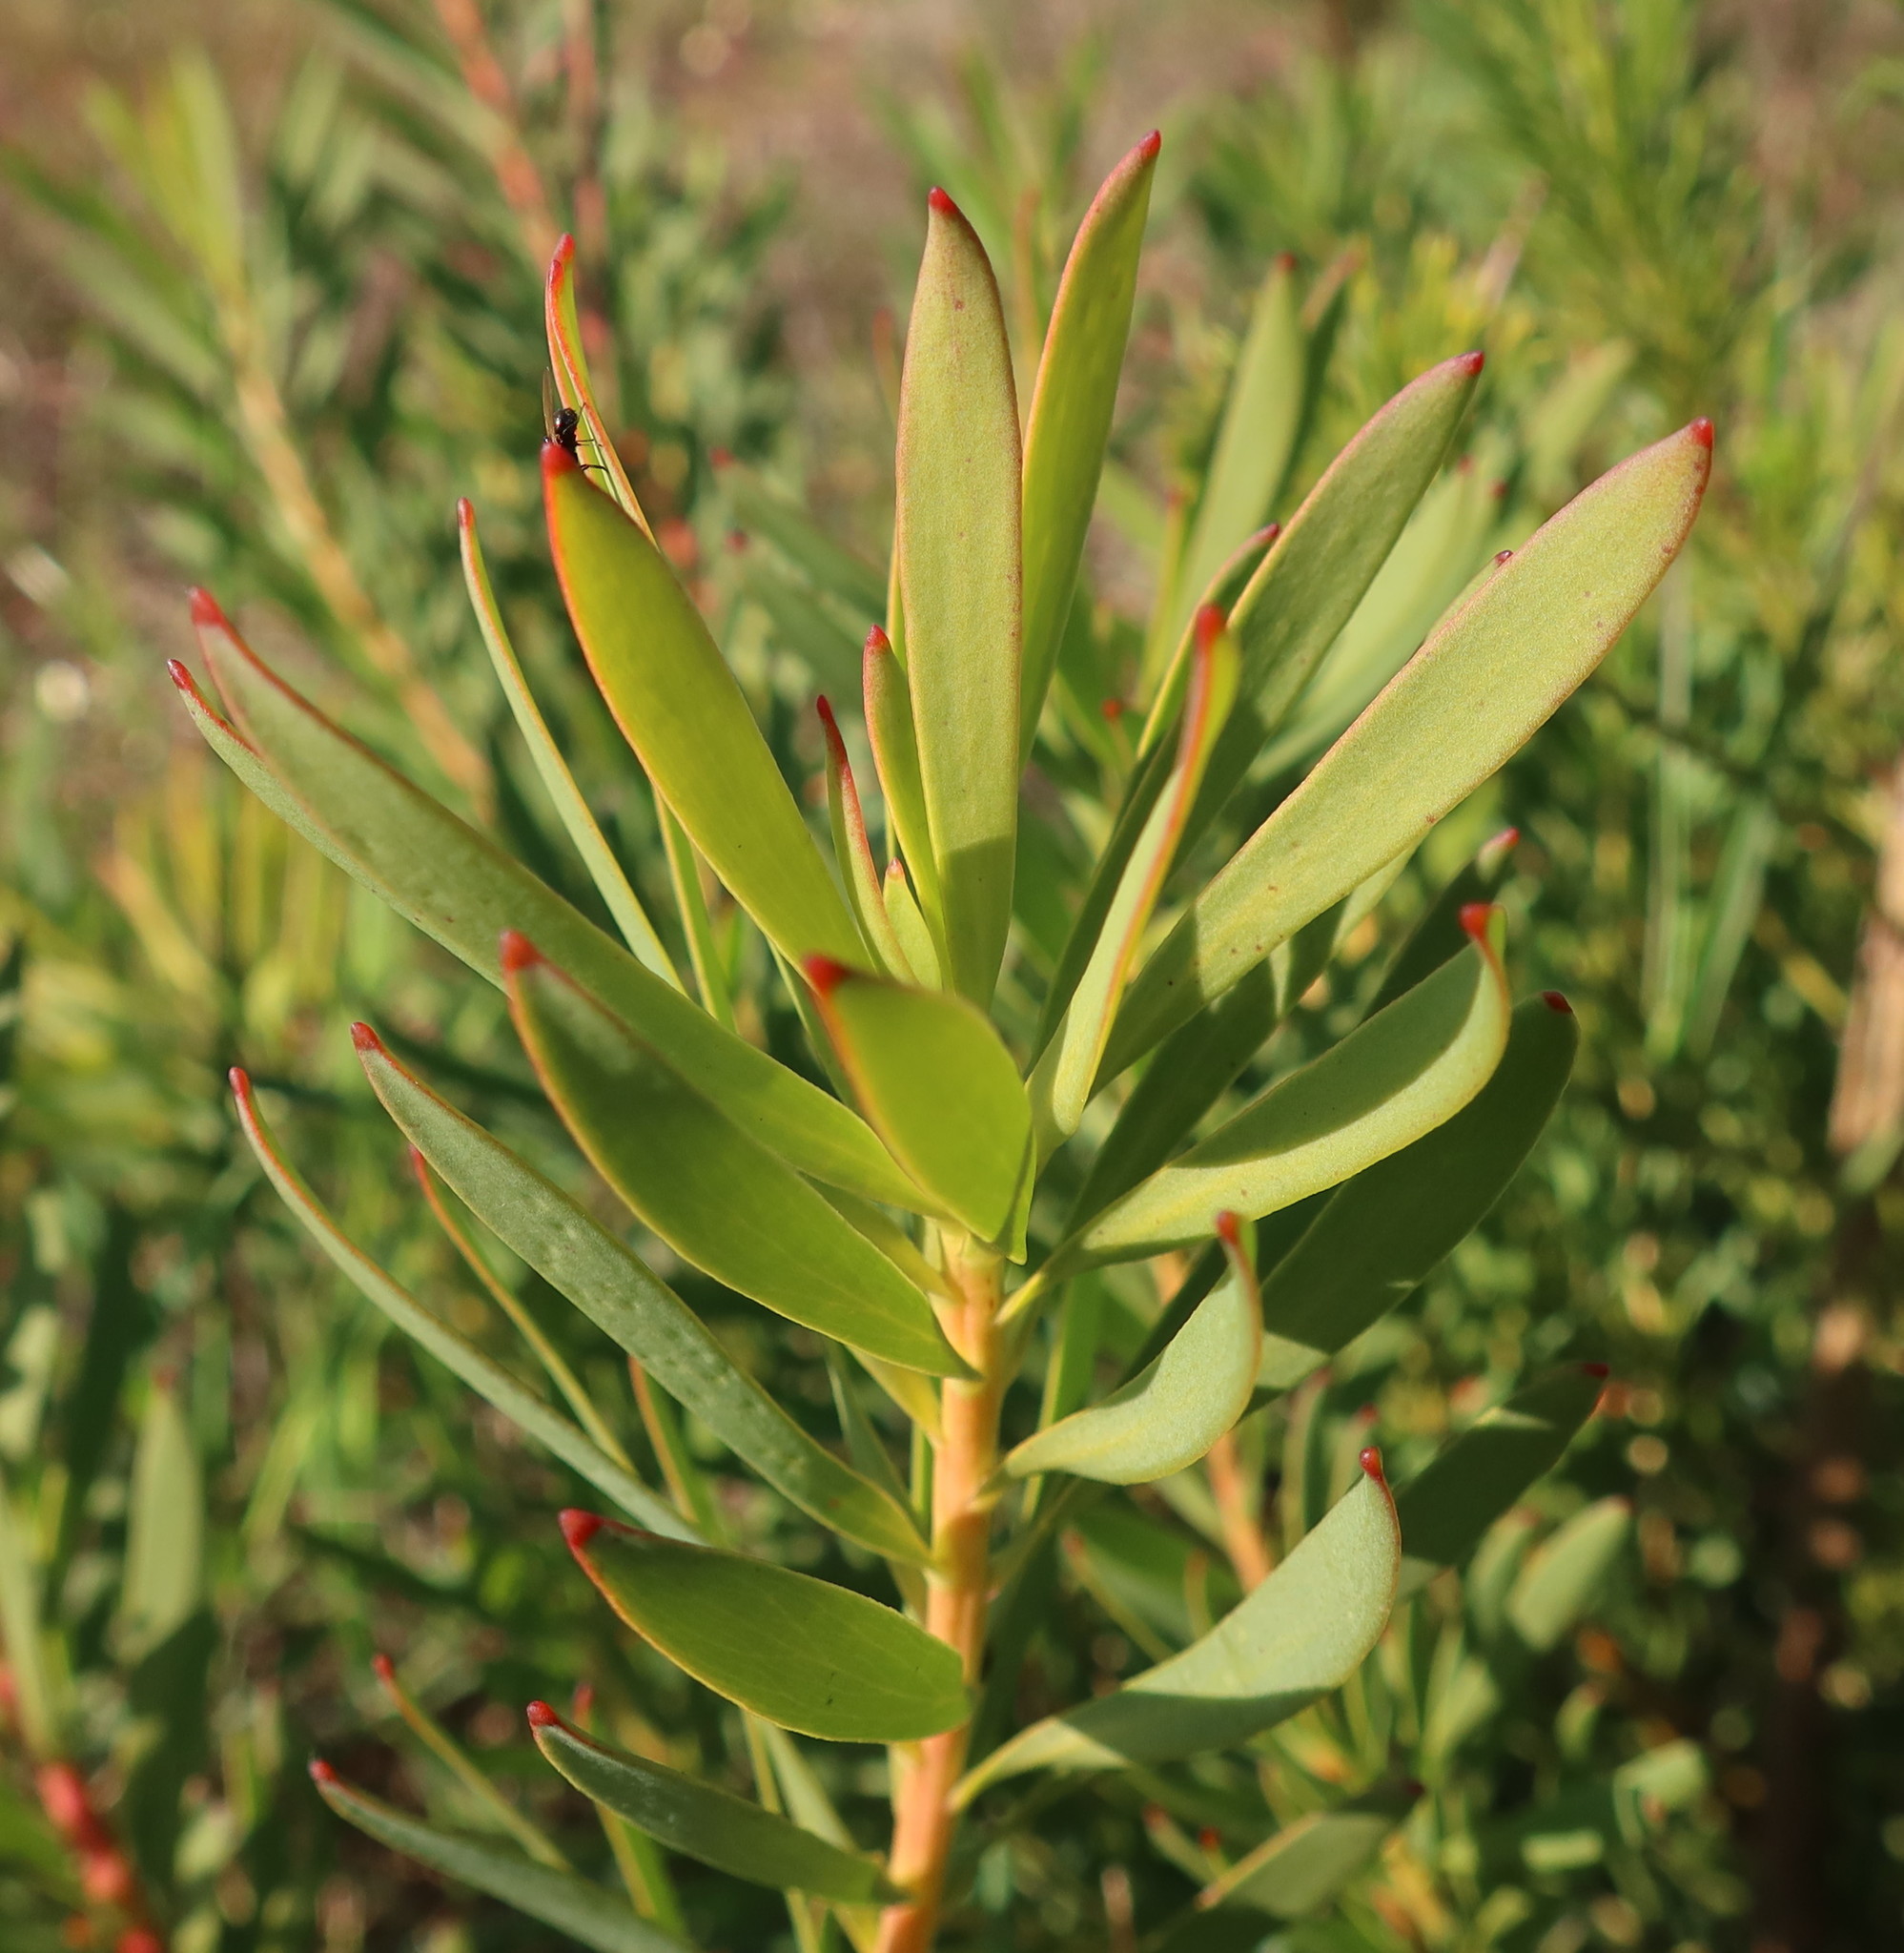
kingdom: Plantae
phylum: Tracheophyta
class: Magnoliopsida
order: Proteales
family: Proteaceae
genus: Leucadendron
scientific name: Leucadendron salignum
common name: Common sunshine conebush
